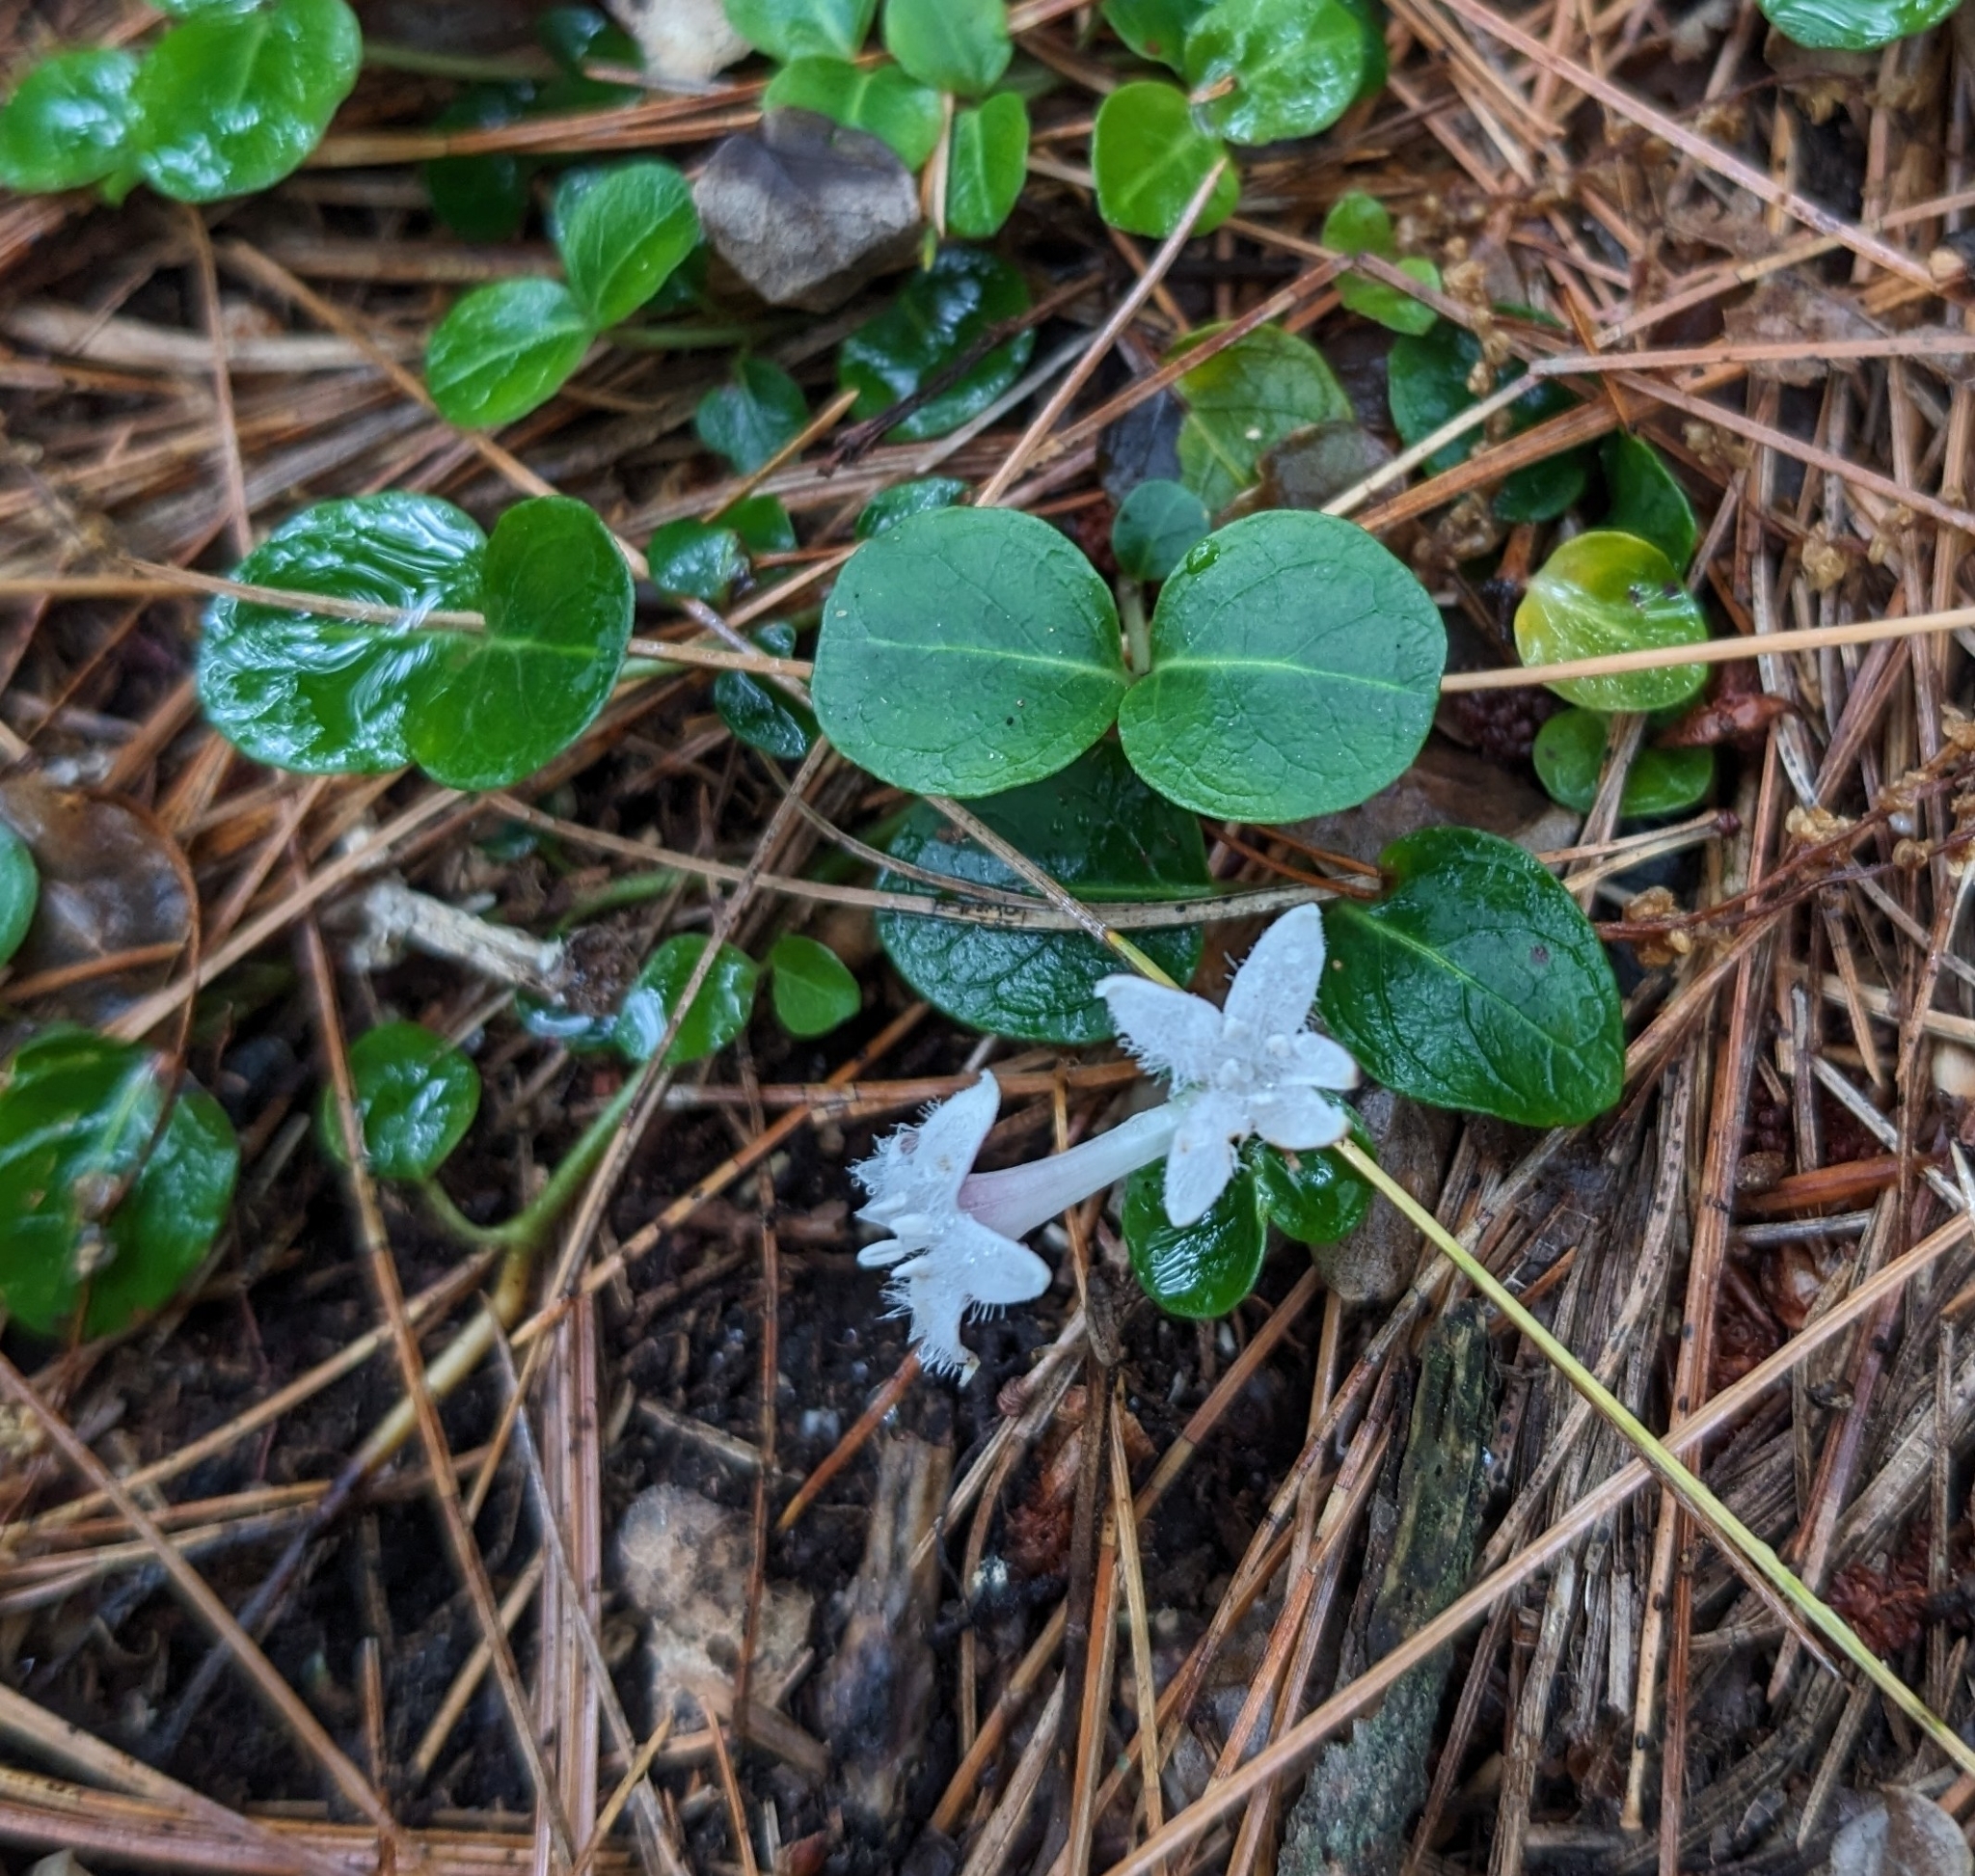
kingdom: Plantae
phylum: Tracheophyta
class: Magnoliopsida
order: Gentianales
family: Rubiaceae
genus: Mitchella
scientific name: Mitchella repens
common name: Partridge-berry
